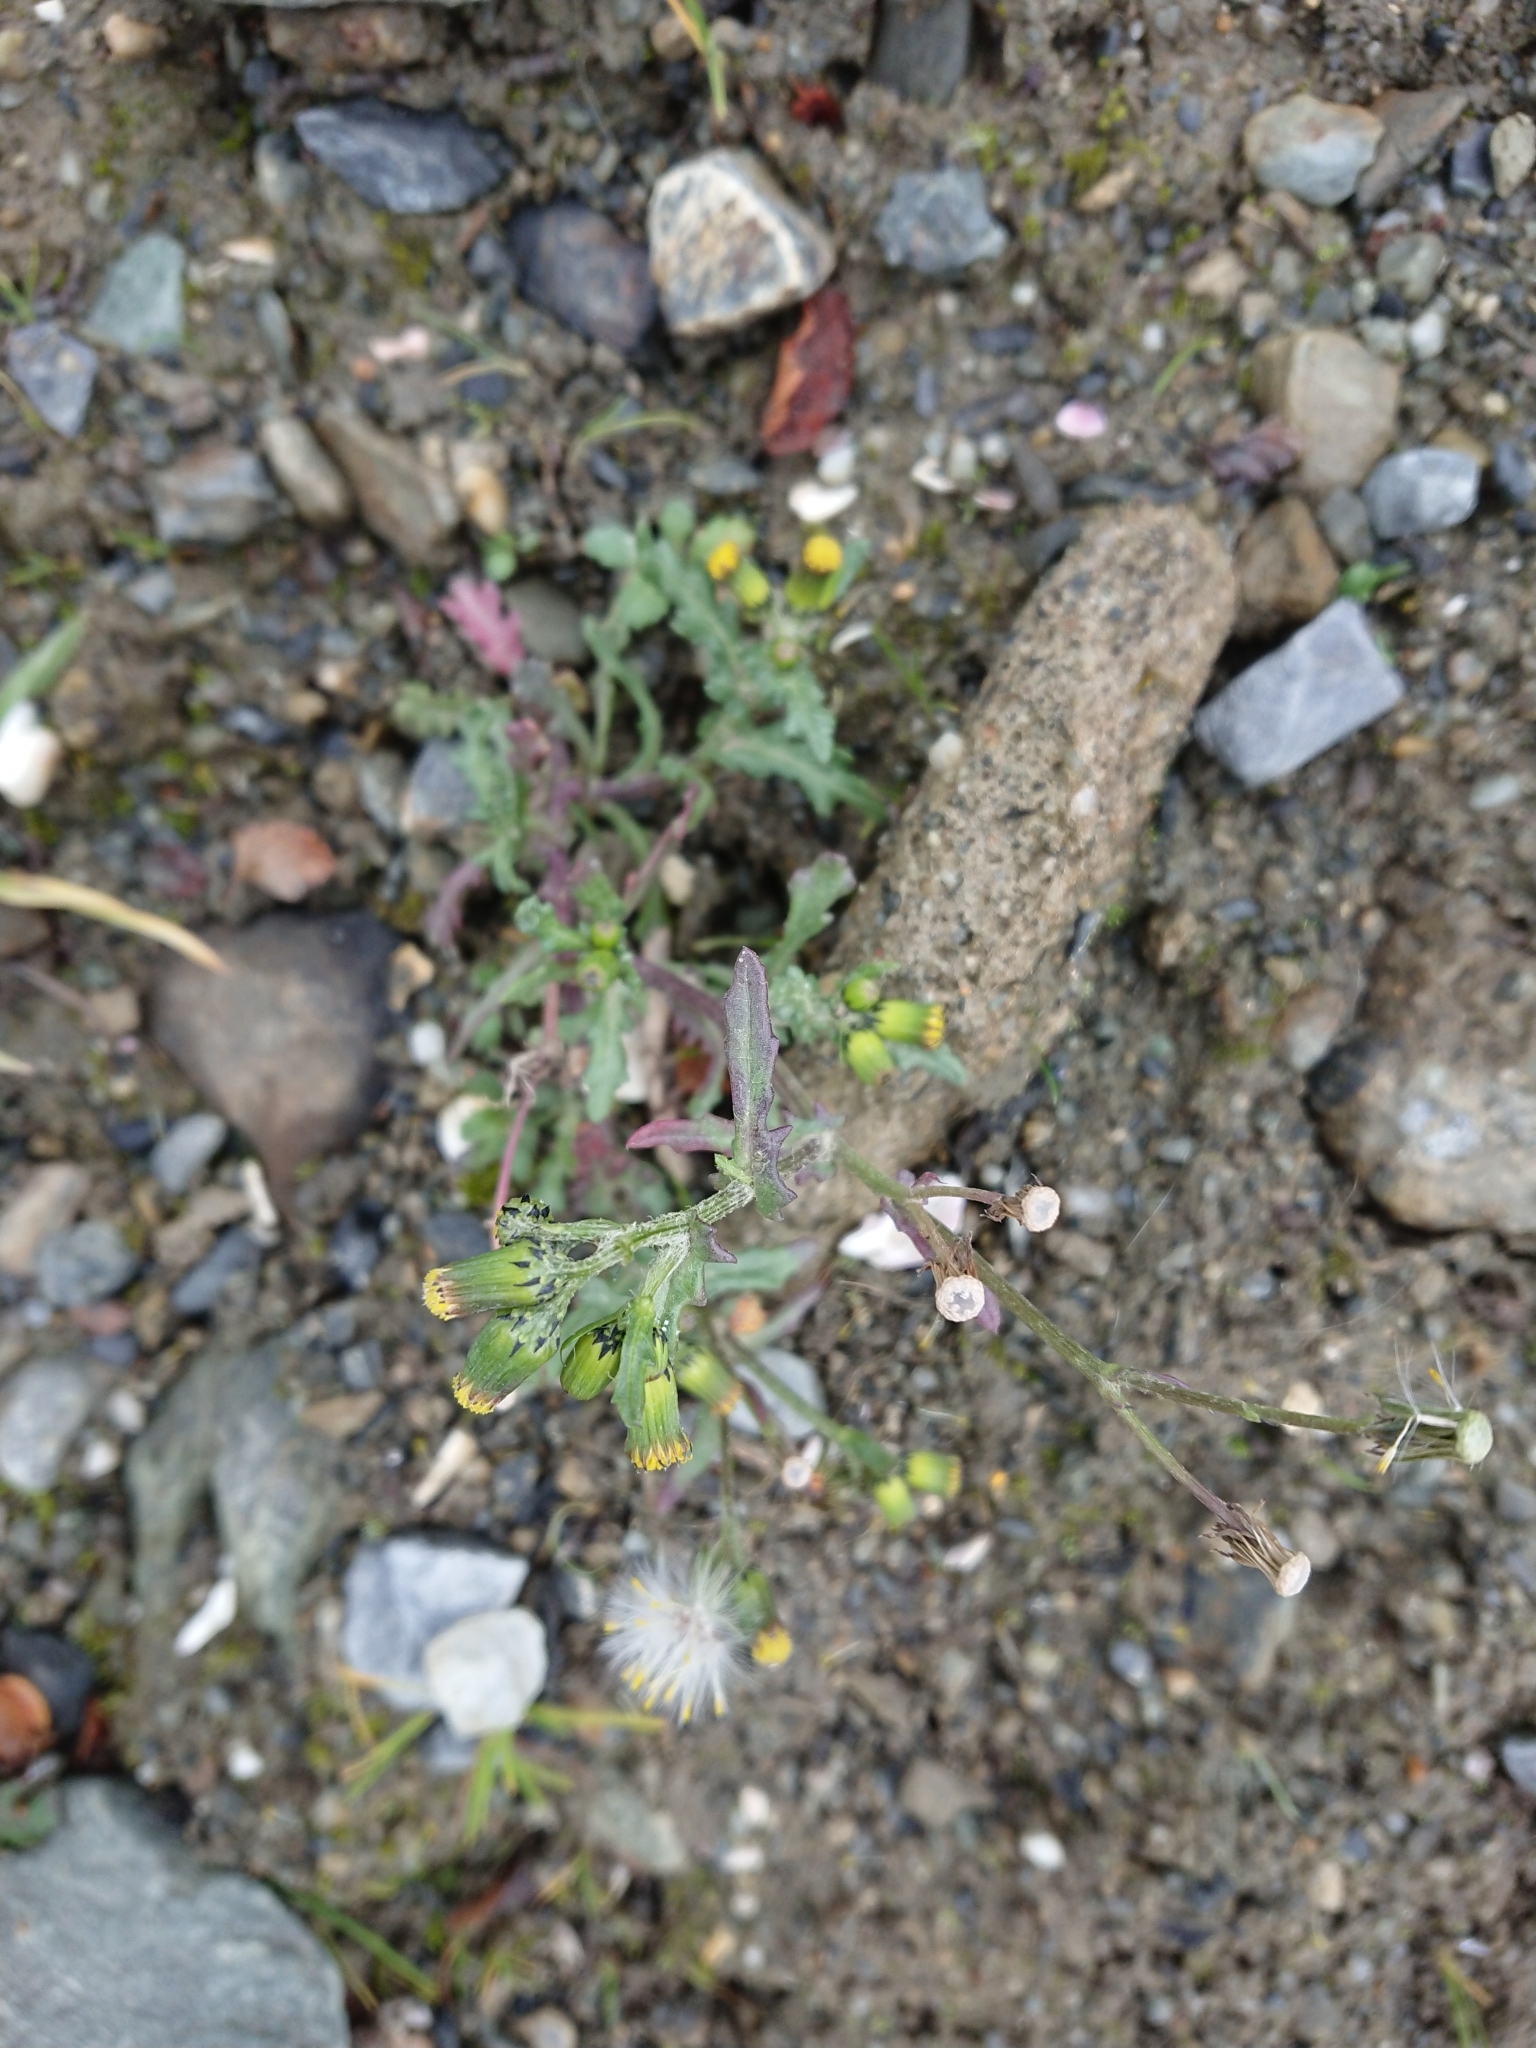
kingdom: Plantae
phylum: Tracheophyta
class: Magnoliopsida
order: Asterales
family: Asteraceae
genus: Senecio
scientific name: Senecio vulgaris
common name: Old-man-in-the-spring
